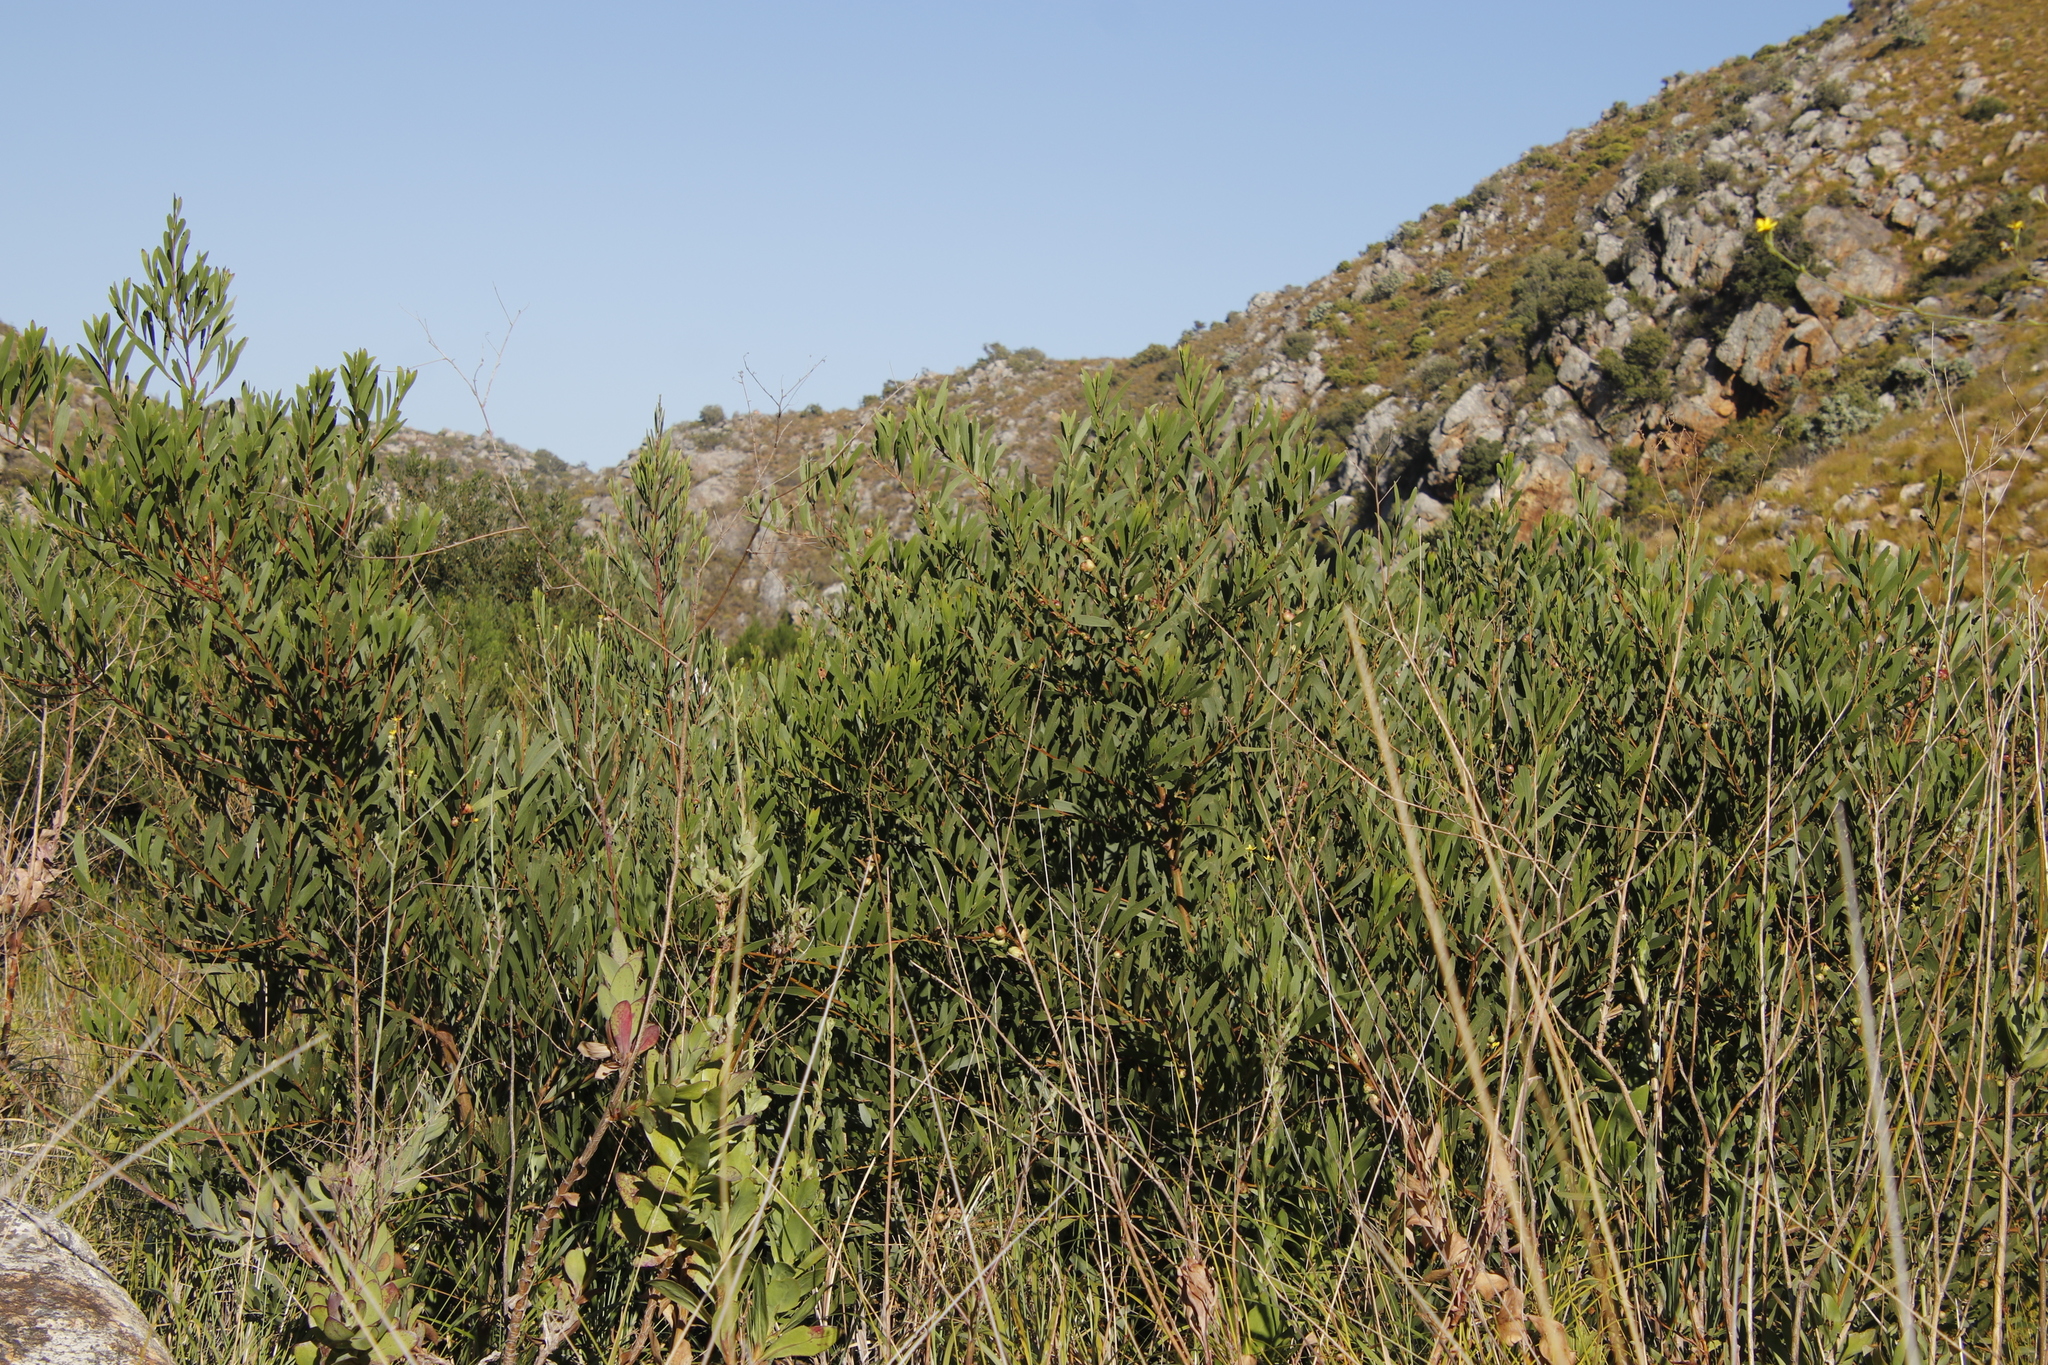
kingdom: Plantae
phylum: Tracheophyta
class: Magnoliopsida
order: Fabales
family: Fabaceae
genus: Acacia
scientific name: Acacia longifolia
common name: Sydney golden wattle
